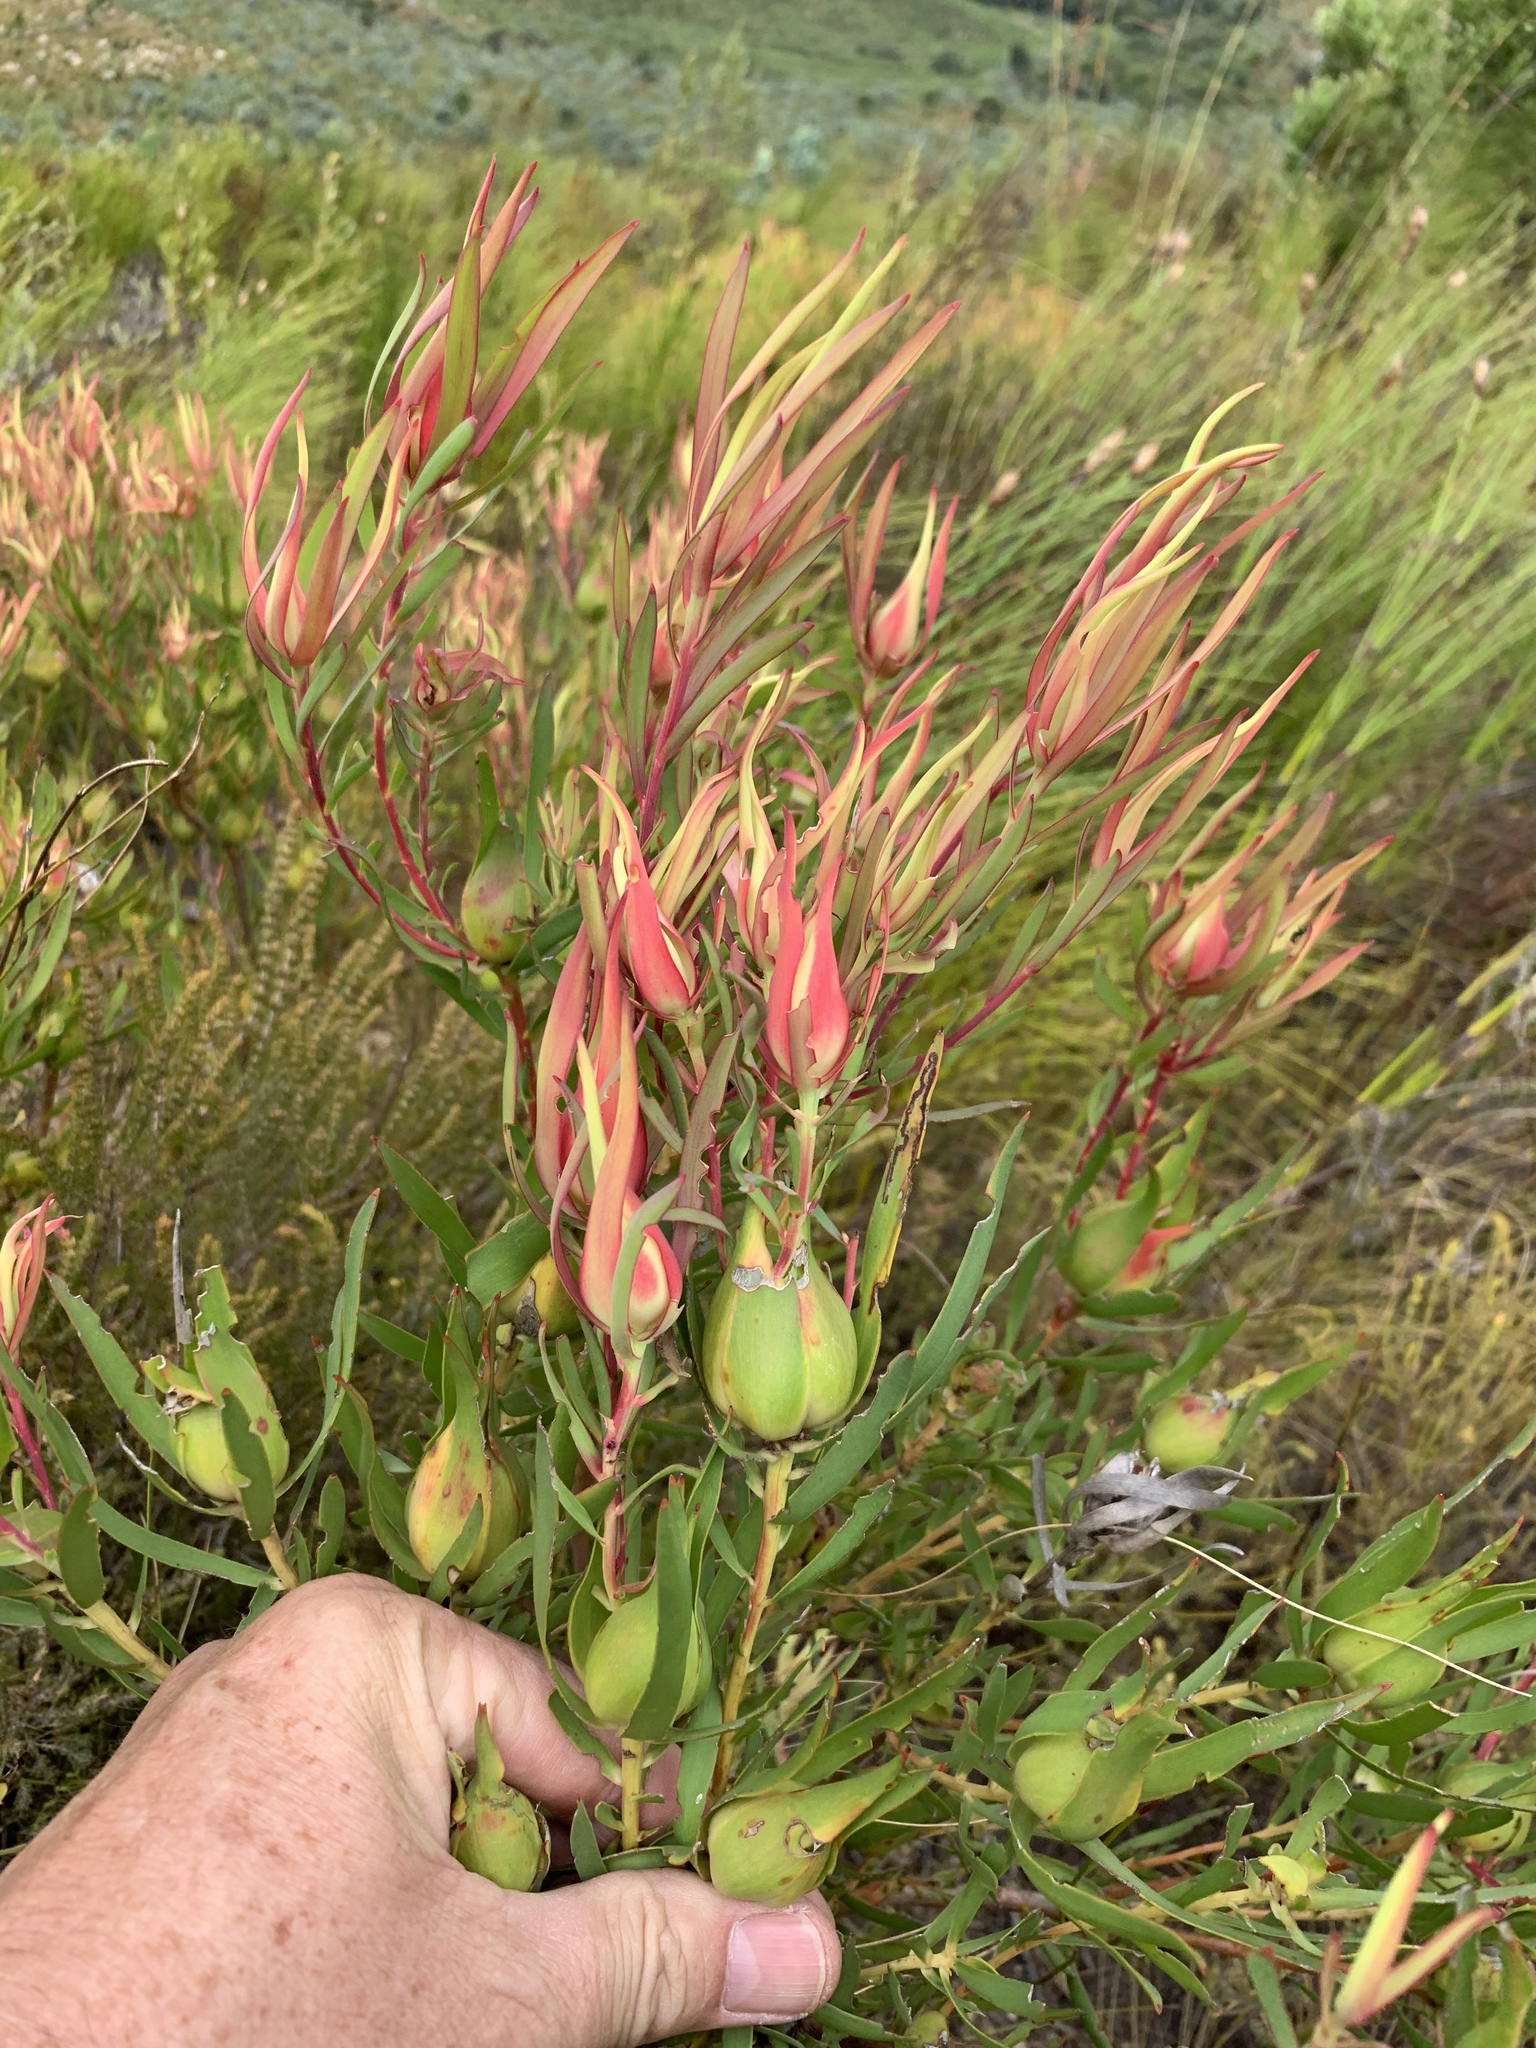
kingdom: Plantae
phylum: Tracheophyta
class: Magnoliopsida
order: Proteales
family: Proteaceae
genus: Leucadendron
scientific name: Leucadendron salignum
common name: Common sunshine conebush
